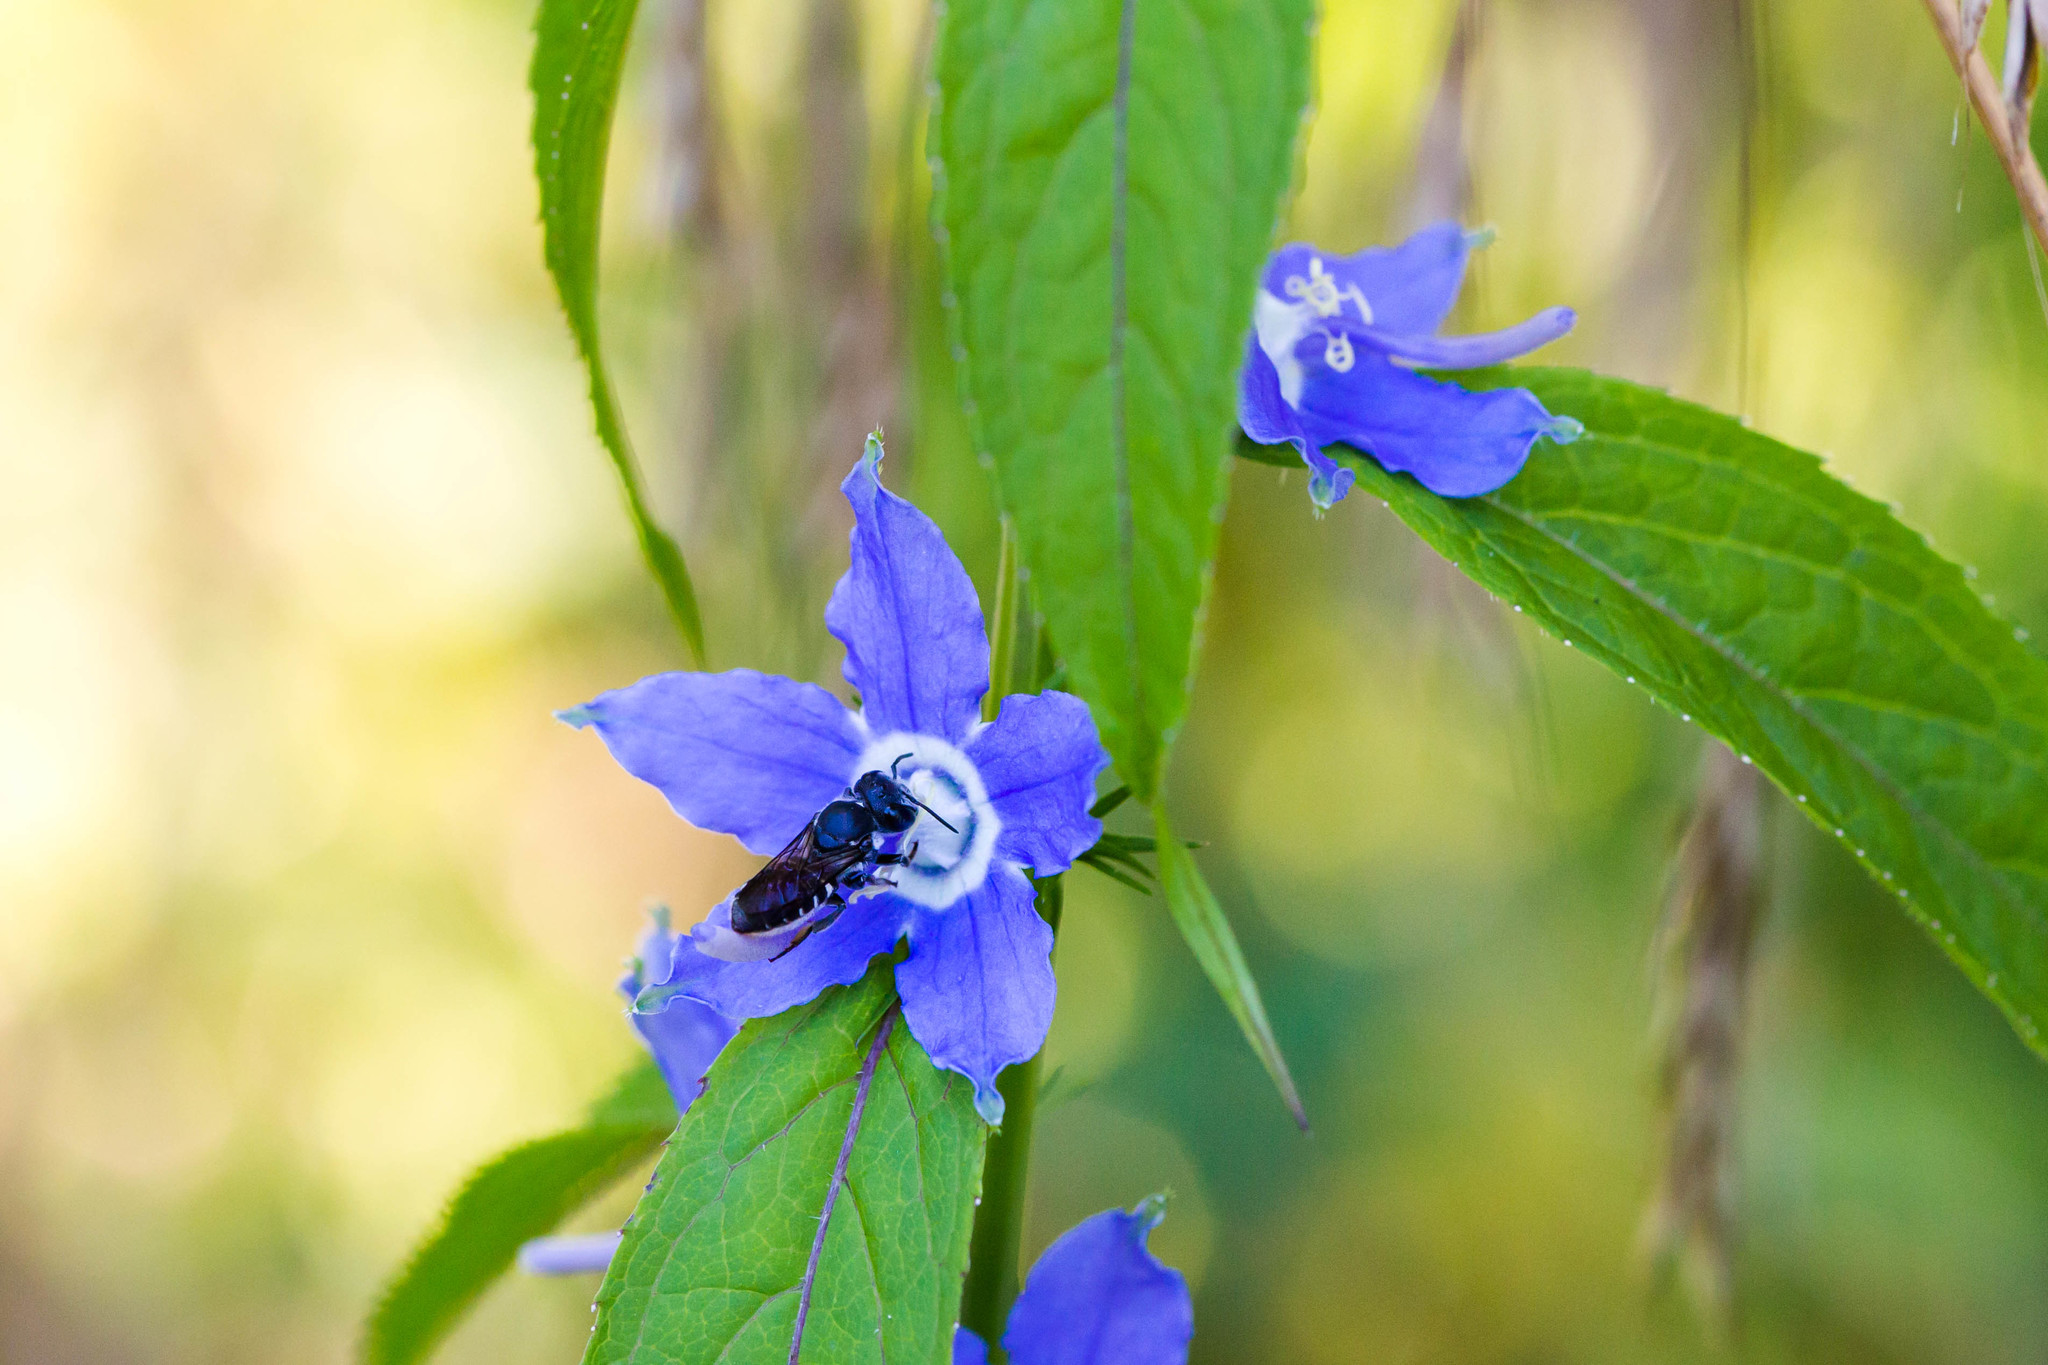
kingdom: Animalia
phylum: Arthropoda
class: Insecta
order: Hymenoptera
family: Megachilidae
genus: Megachile
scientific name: Megachile campanulae
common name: Bellflower resin bee
